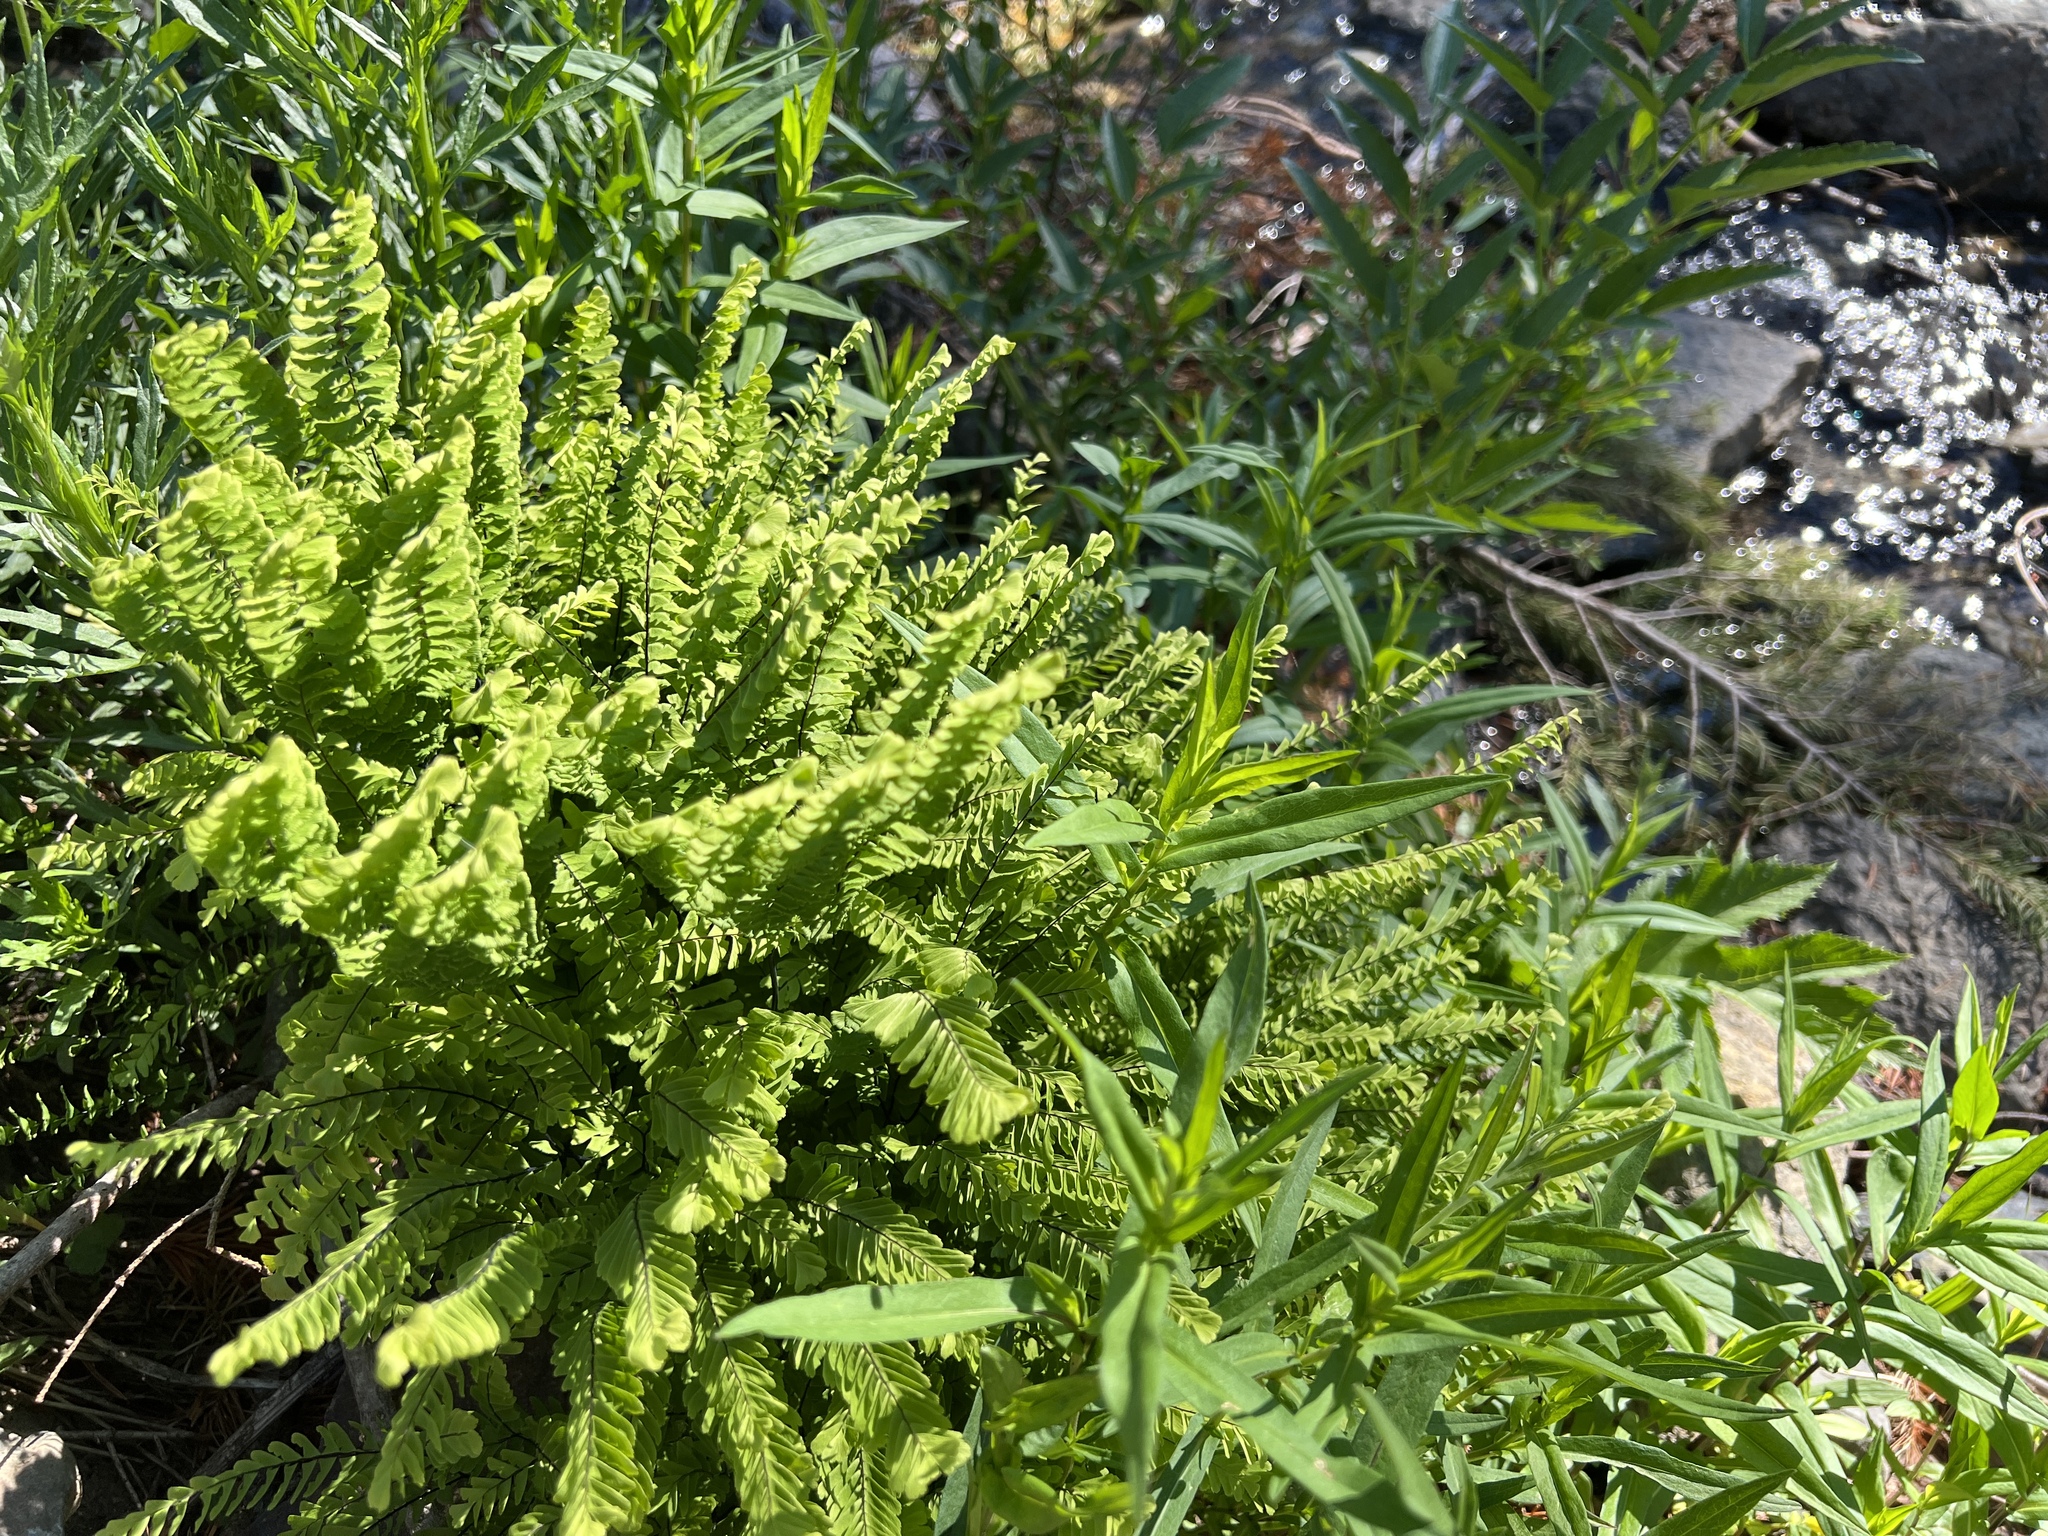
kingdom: Plantae
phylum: Tracheophyta
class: Polypodiopsida
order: Polypodiales
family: Pteridaceae
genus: Adiantum
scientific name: Adiantum aleuticum
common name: Aleutian maidenhair fern
